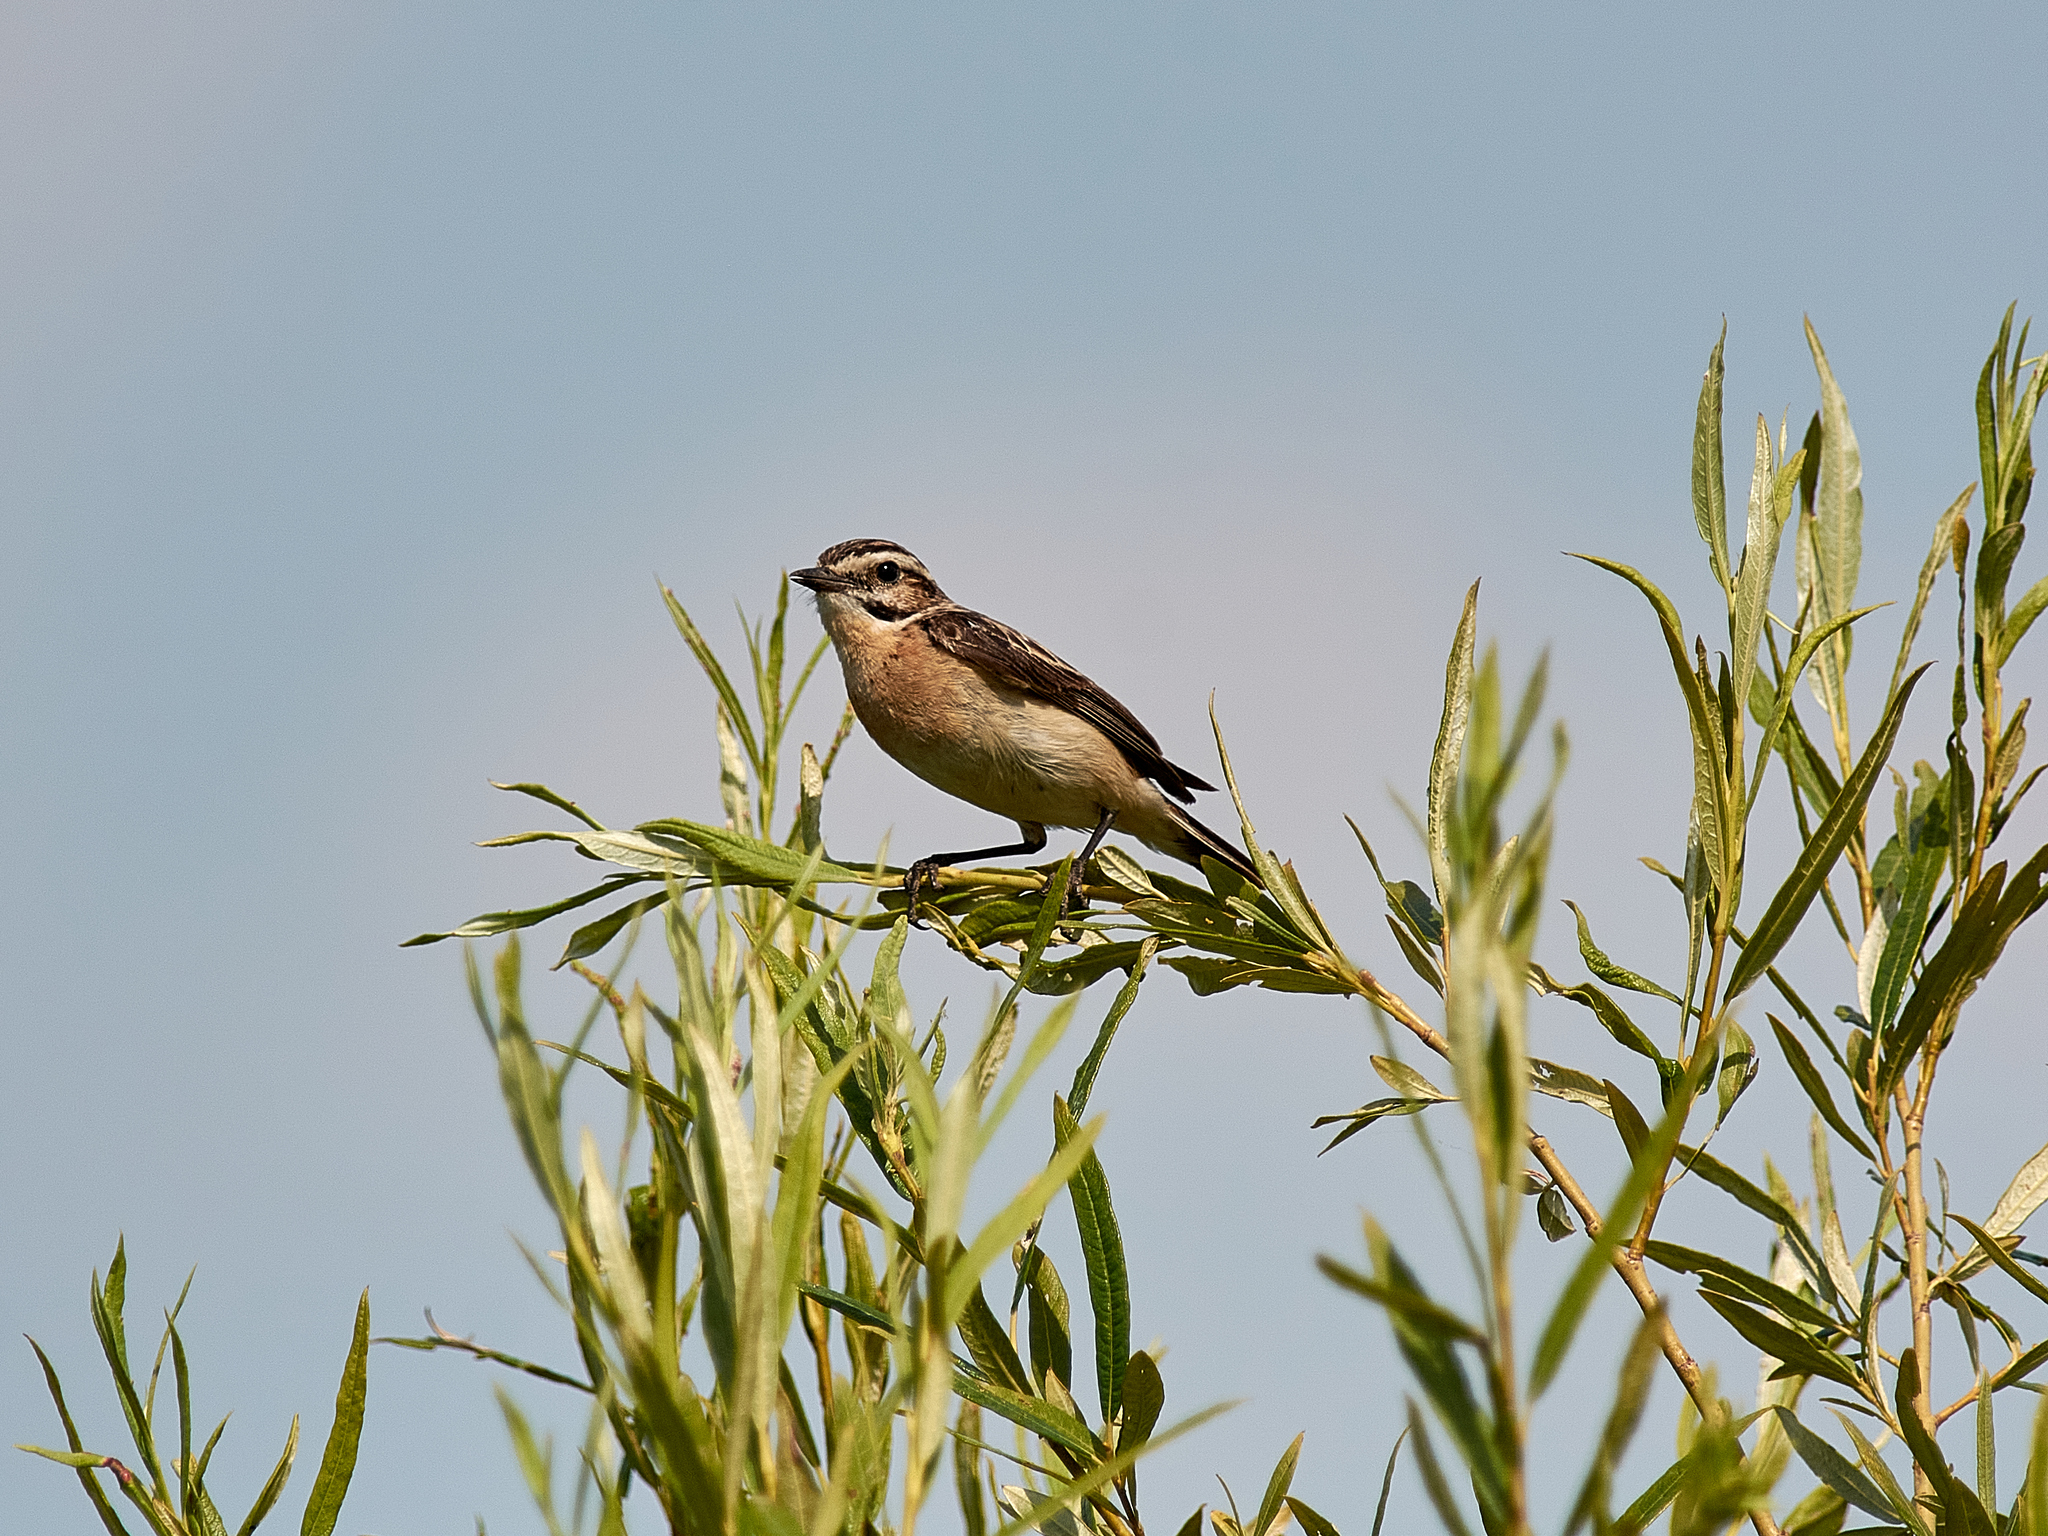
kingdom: Animalia
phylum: Chordata
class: Aves
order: Passeriformes
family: Muscicapidae
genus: Saxicola
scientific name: Saxicola rubetra
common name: Whinchat
